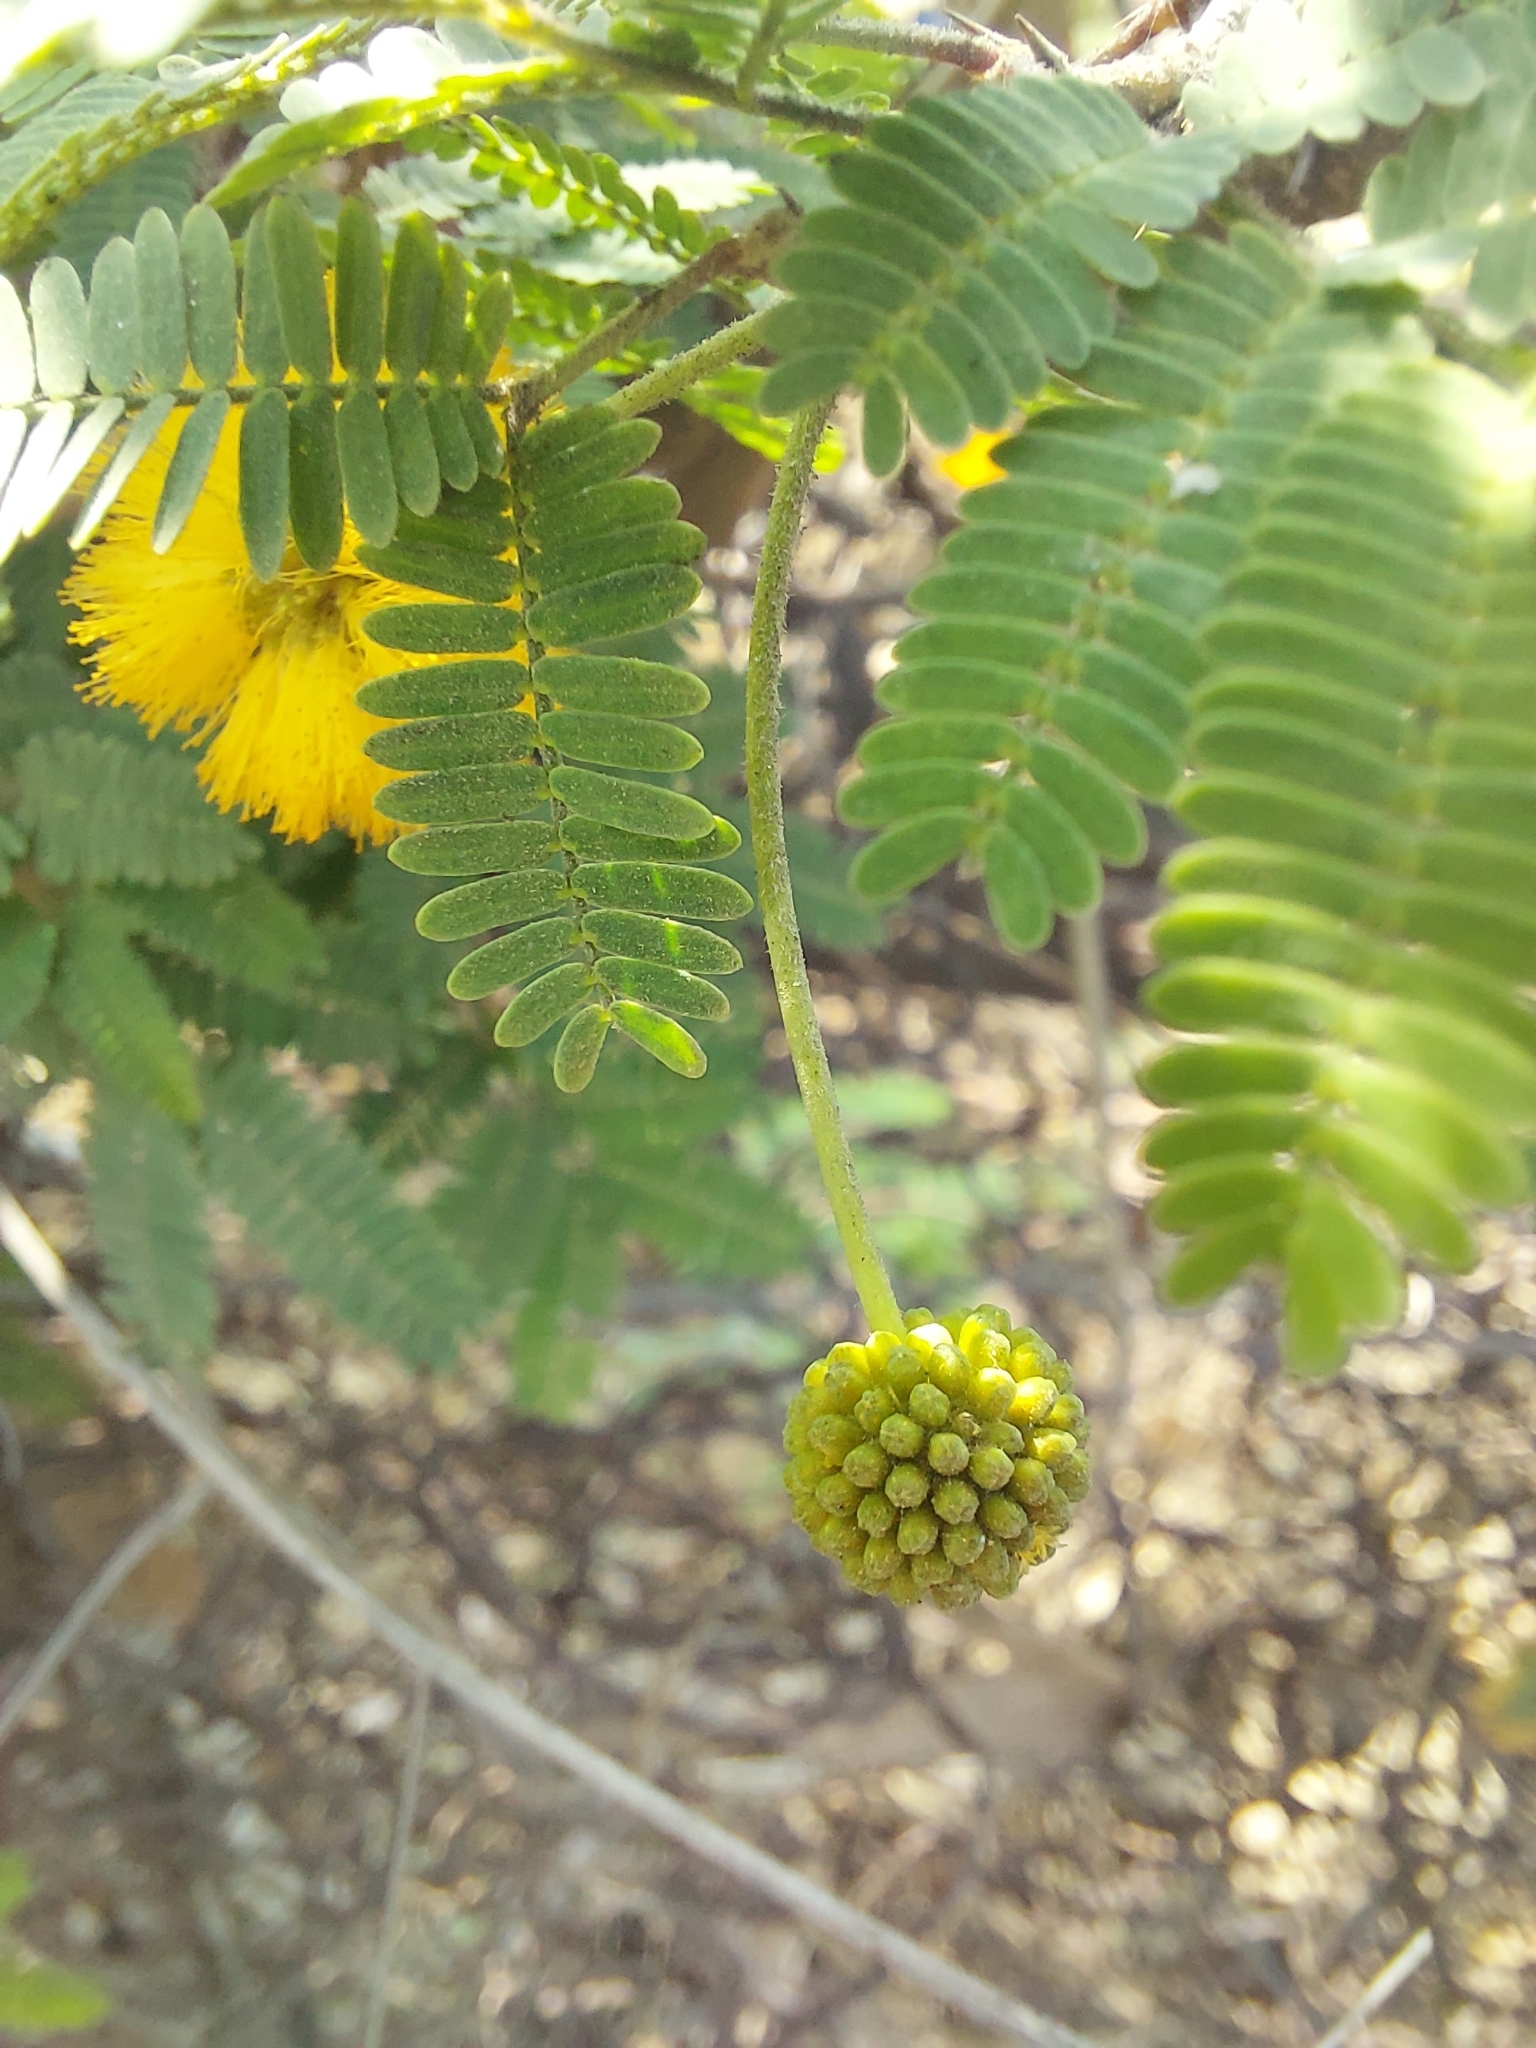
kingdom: Plantae
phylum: Tracheophyta
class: Magnoliopsida
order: Fabales
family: Fabaceae
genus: Vachellia
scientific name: Vachellia farnesiana
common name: Sweet acacia
